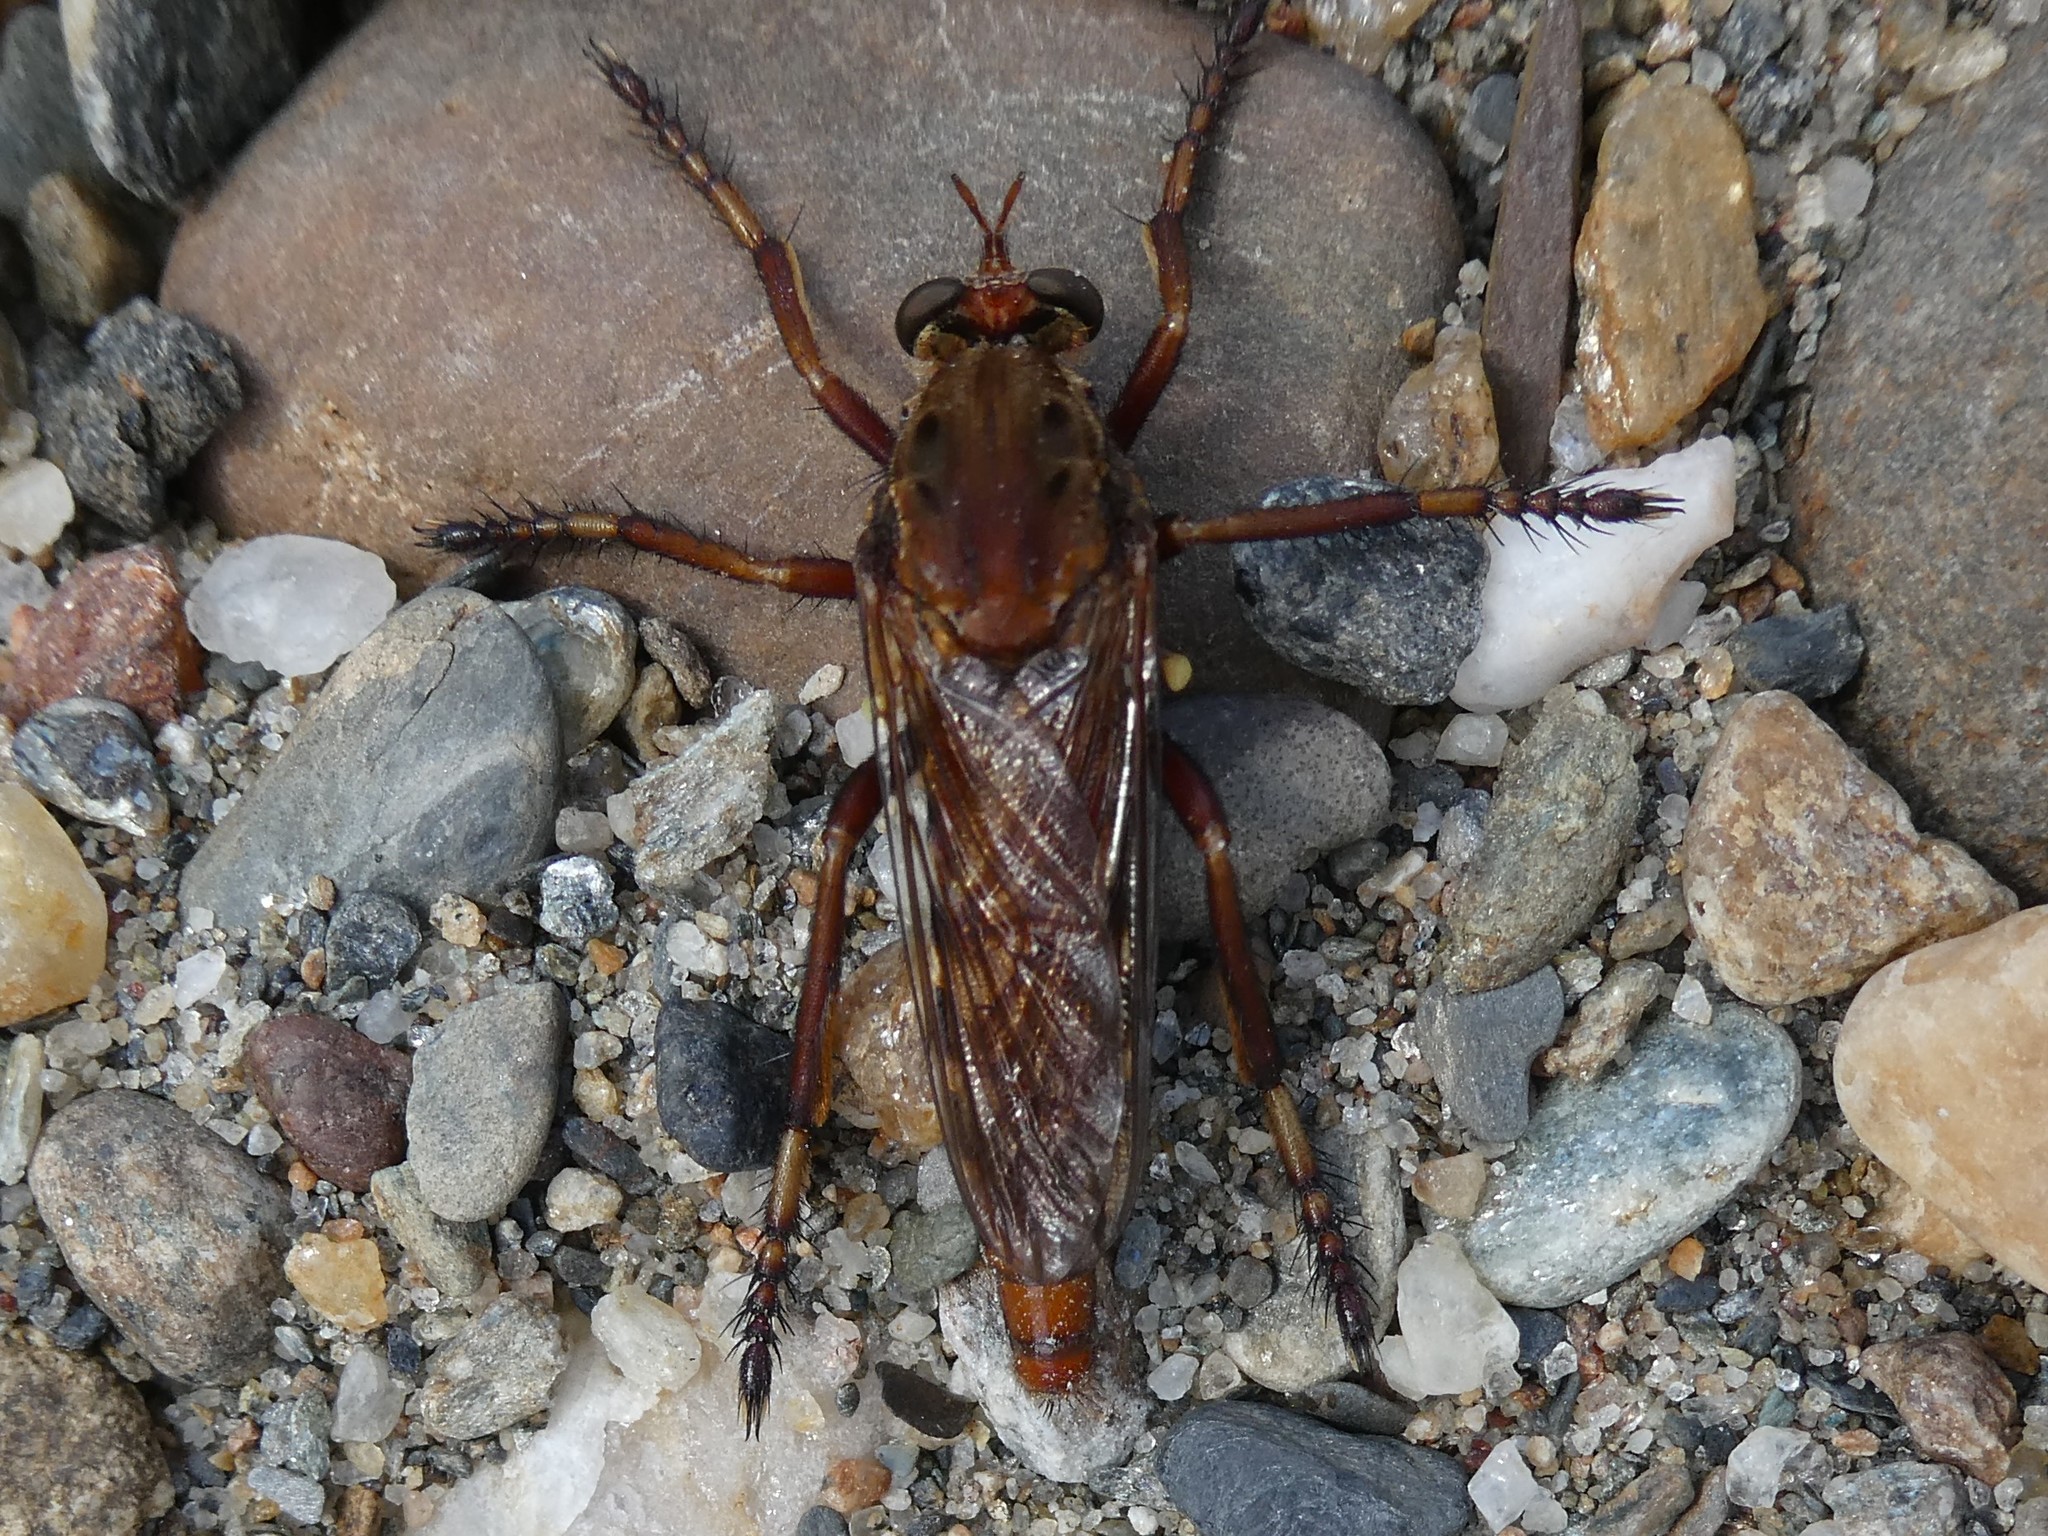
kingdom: Animalia
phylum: Arthropoda
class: Insecta
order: Diptera
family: Asilidae
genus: Diogmites
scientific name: Diogmites basalis
